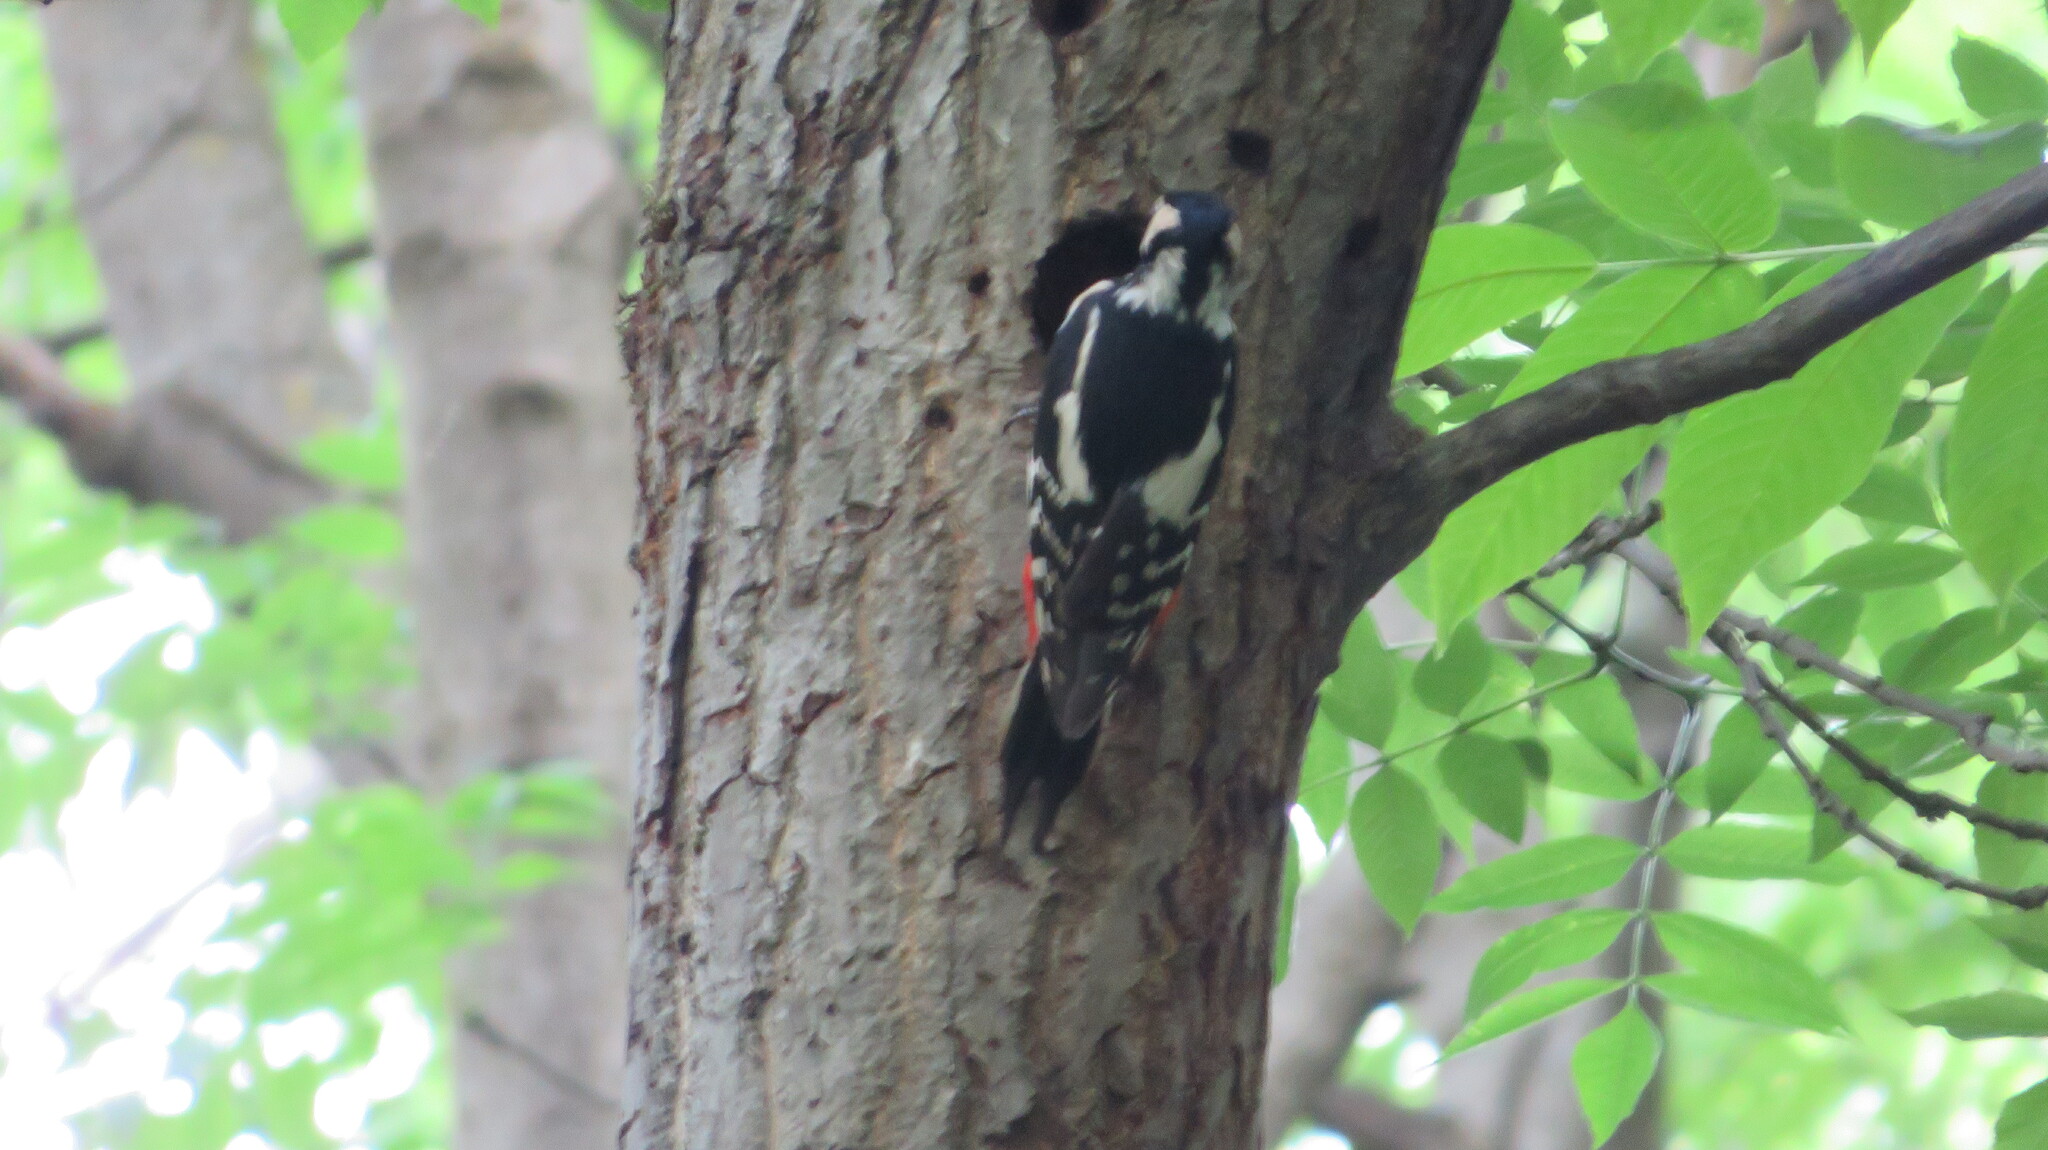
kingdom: Animalia
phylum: Chordata
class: Aves
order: Piciformes
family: Picidae
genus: Dendrocopos
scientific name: Dendrocopos major
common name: Great spotted woodpecker
